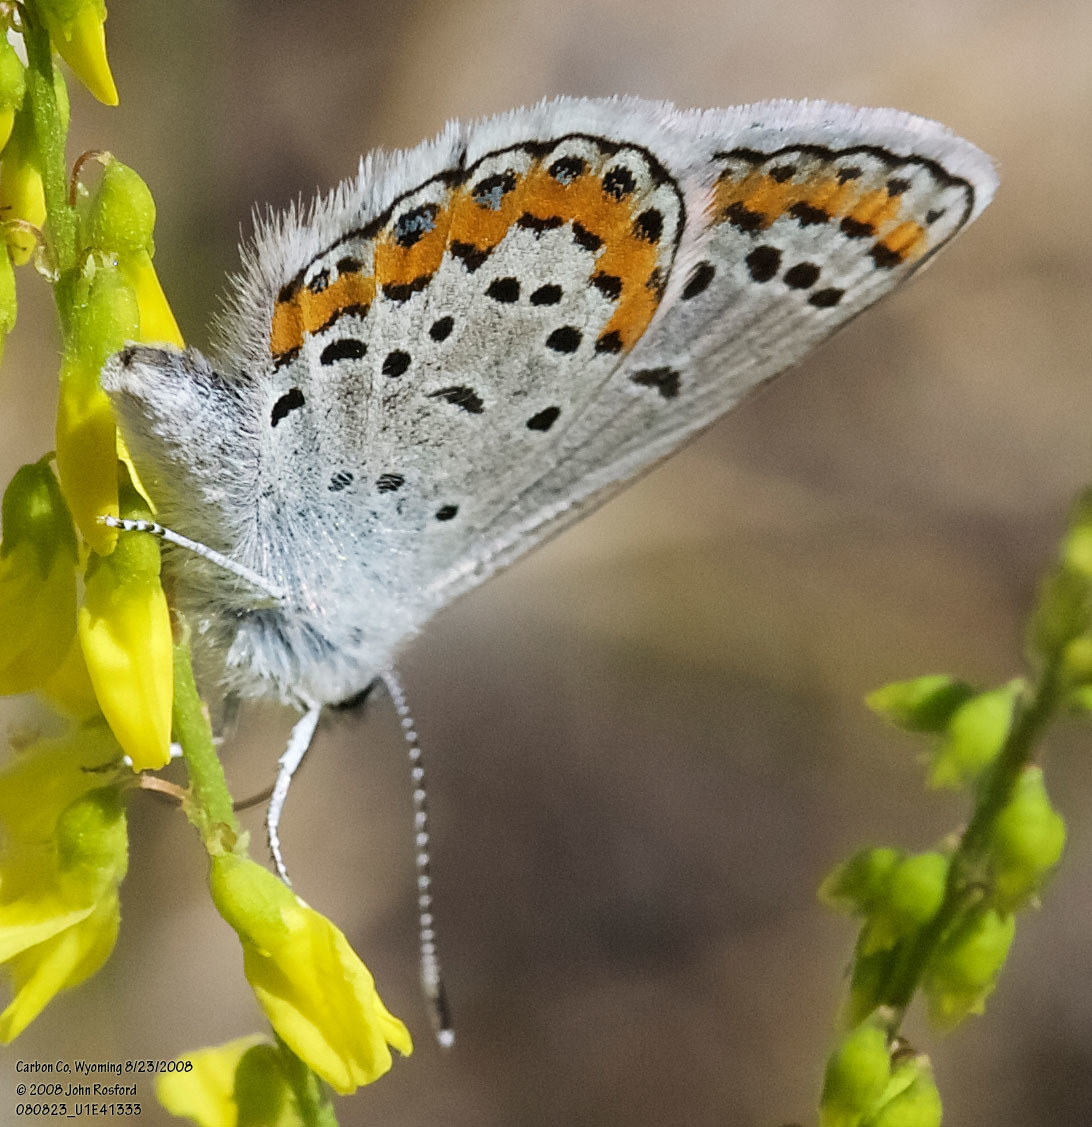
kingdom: Animalia
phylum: Arthropoda
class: Insecta
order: Lepidoptera
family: Lycaenidae
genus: Lycaeides
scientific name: Lycaeides melissa
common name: Melissa blue
